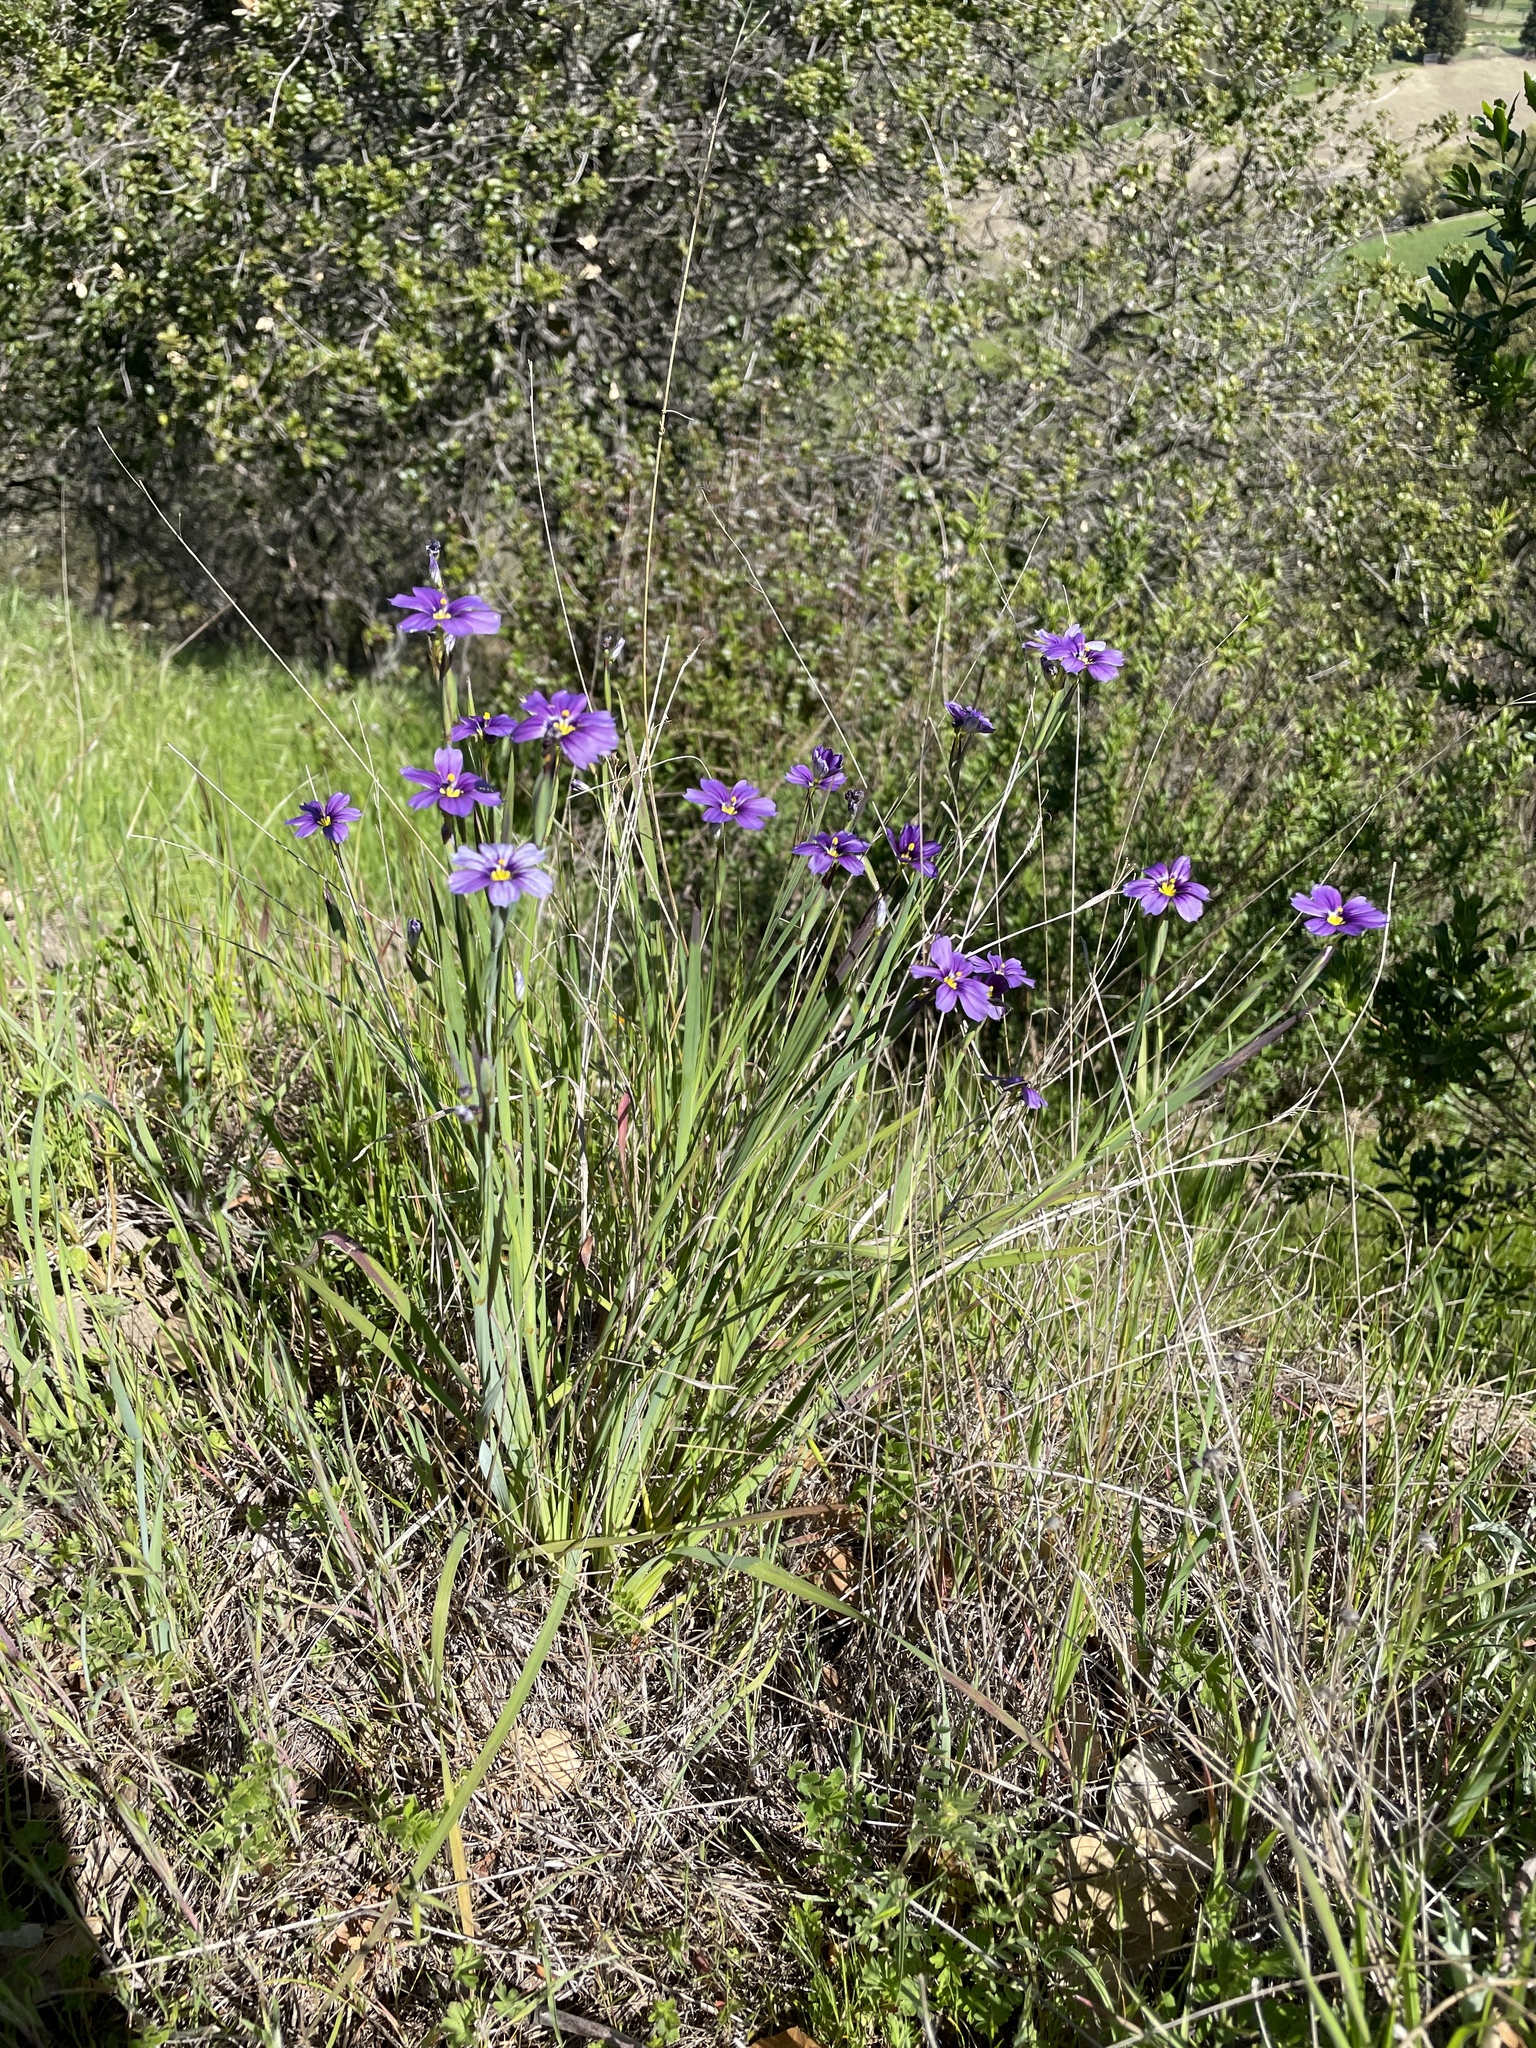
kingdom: Plantae
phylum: Tracheophyta
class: Liliopsida
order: Asparagales
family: Iridaceae
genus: Sisyrinchium
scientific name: Sisyrinchium bellum
